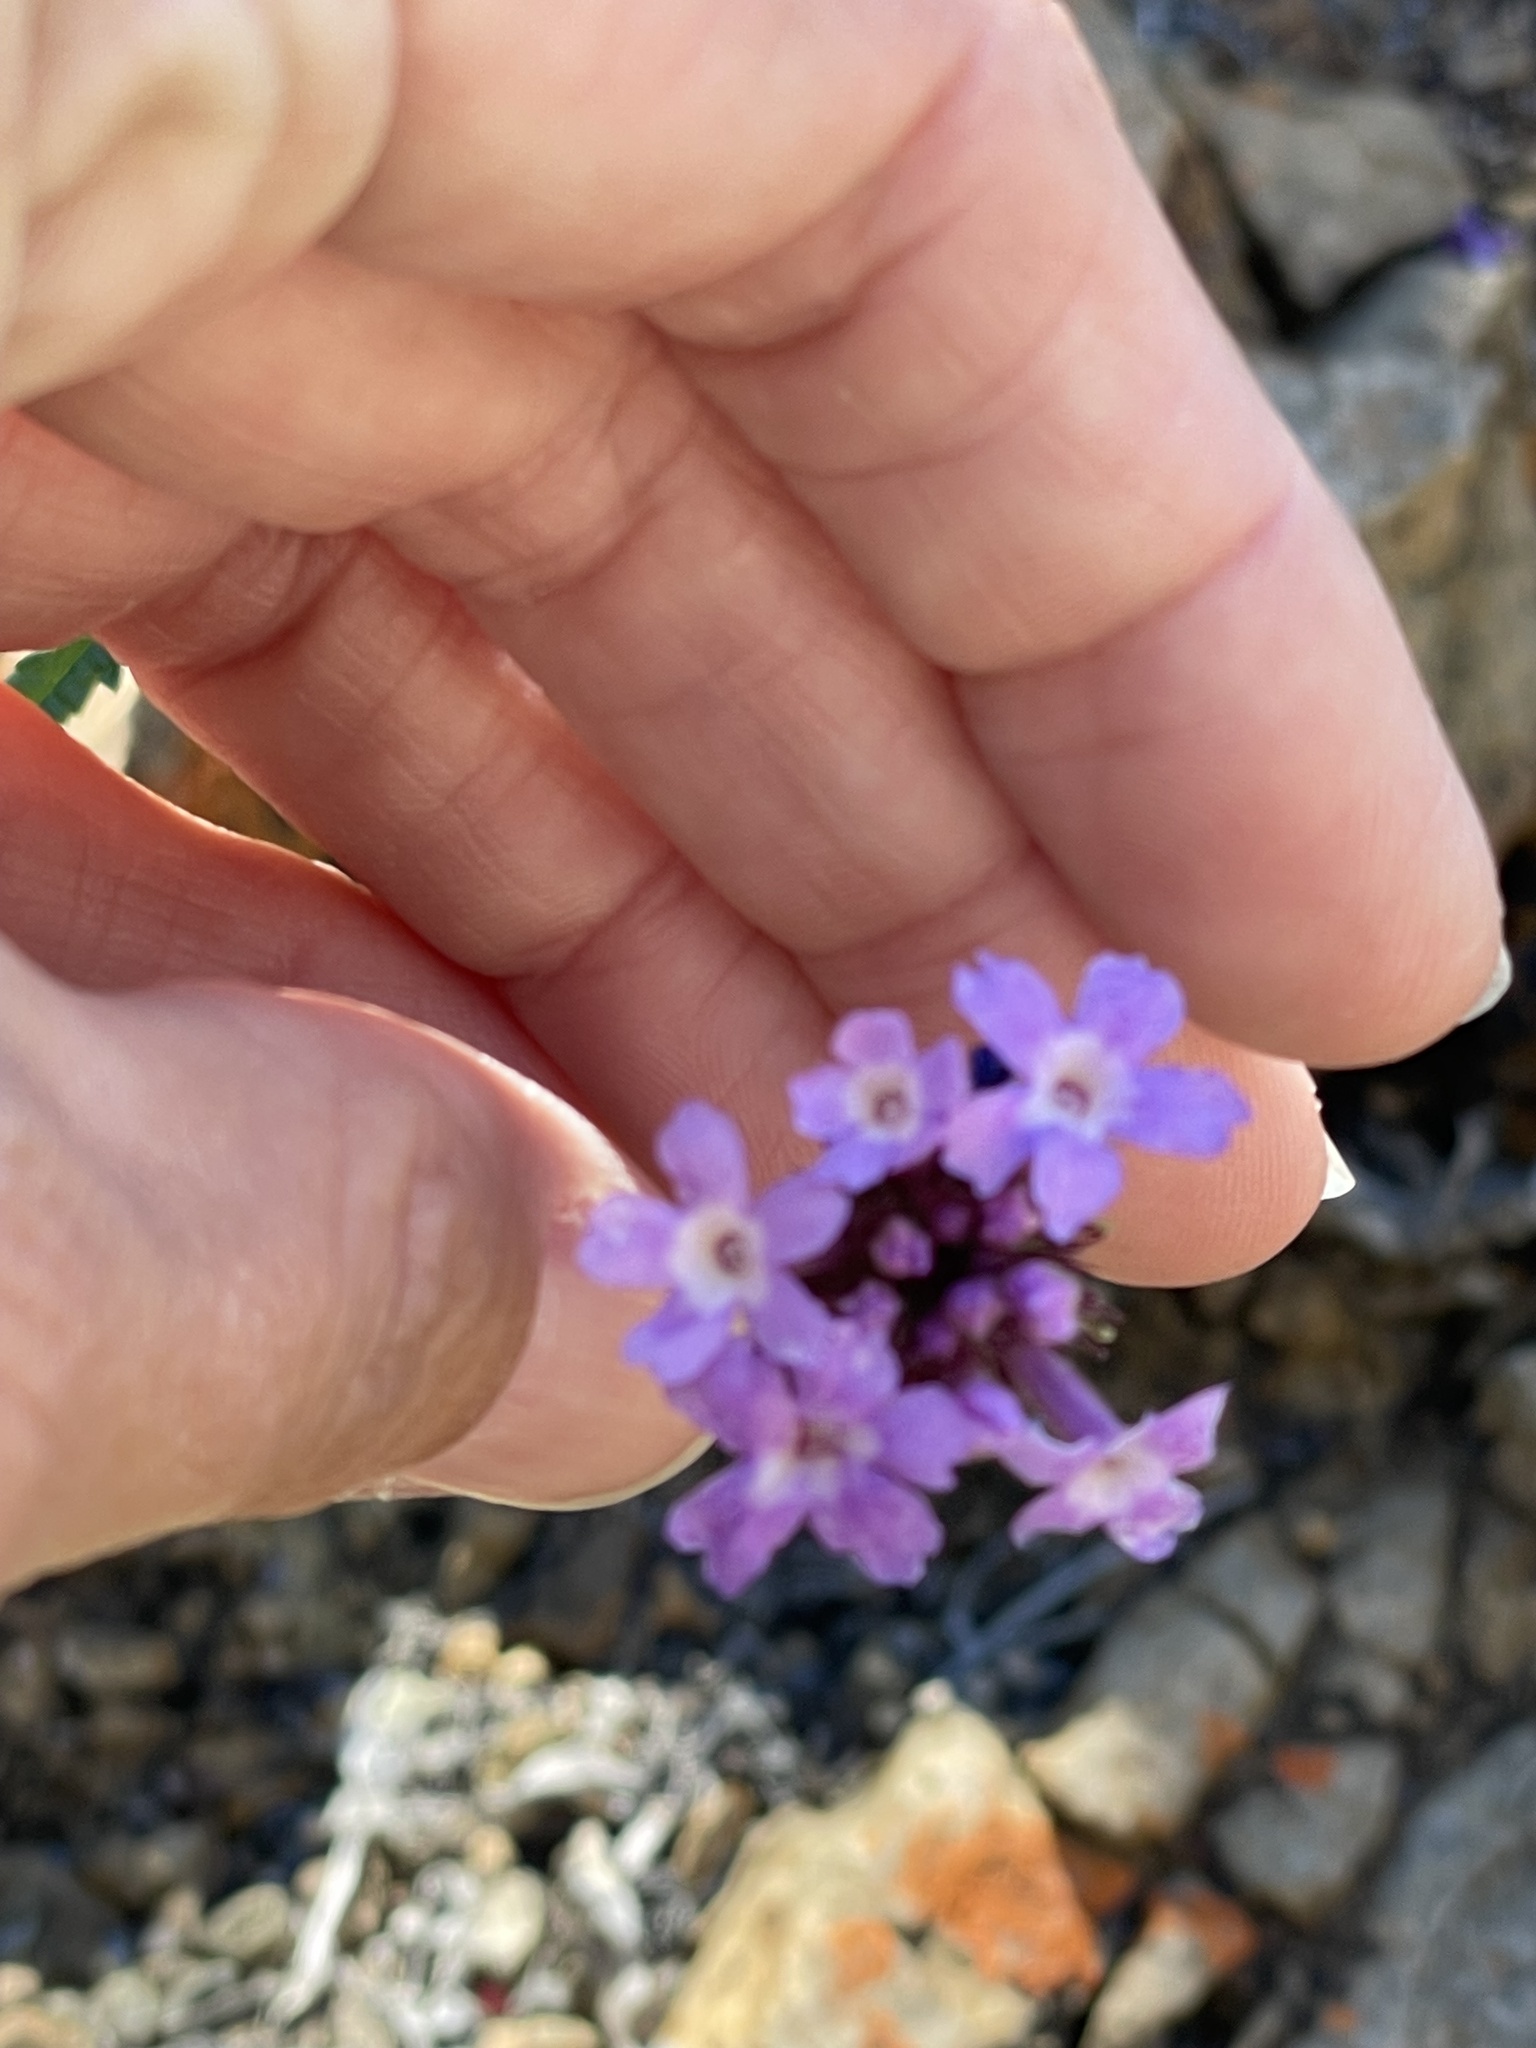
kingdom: Plantae
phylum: Tracheophyta
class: Magnoliopsida
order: Lamiales
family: Verbenaceae
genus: Verbena
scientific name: Verbena lilacina
